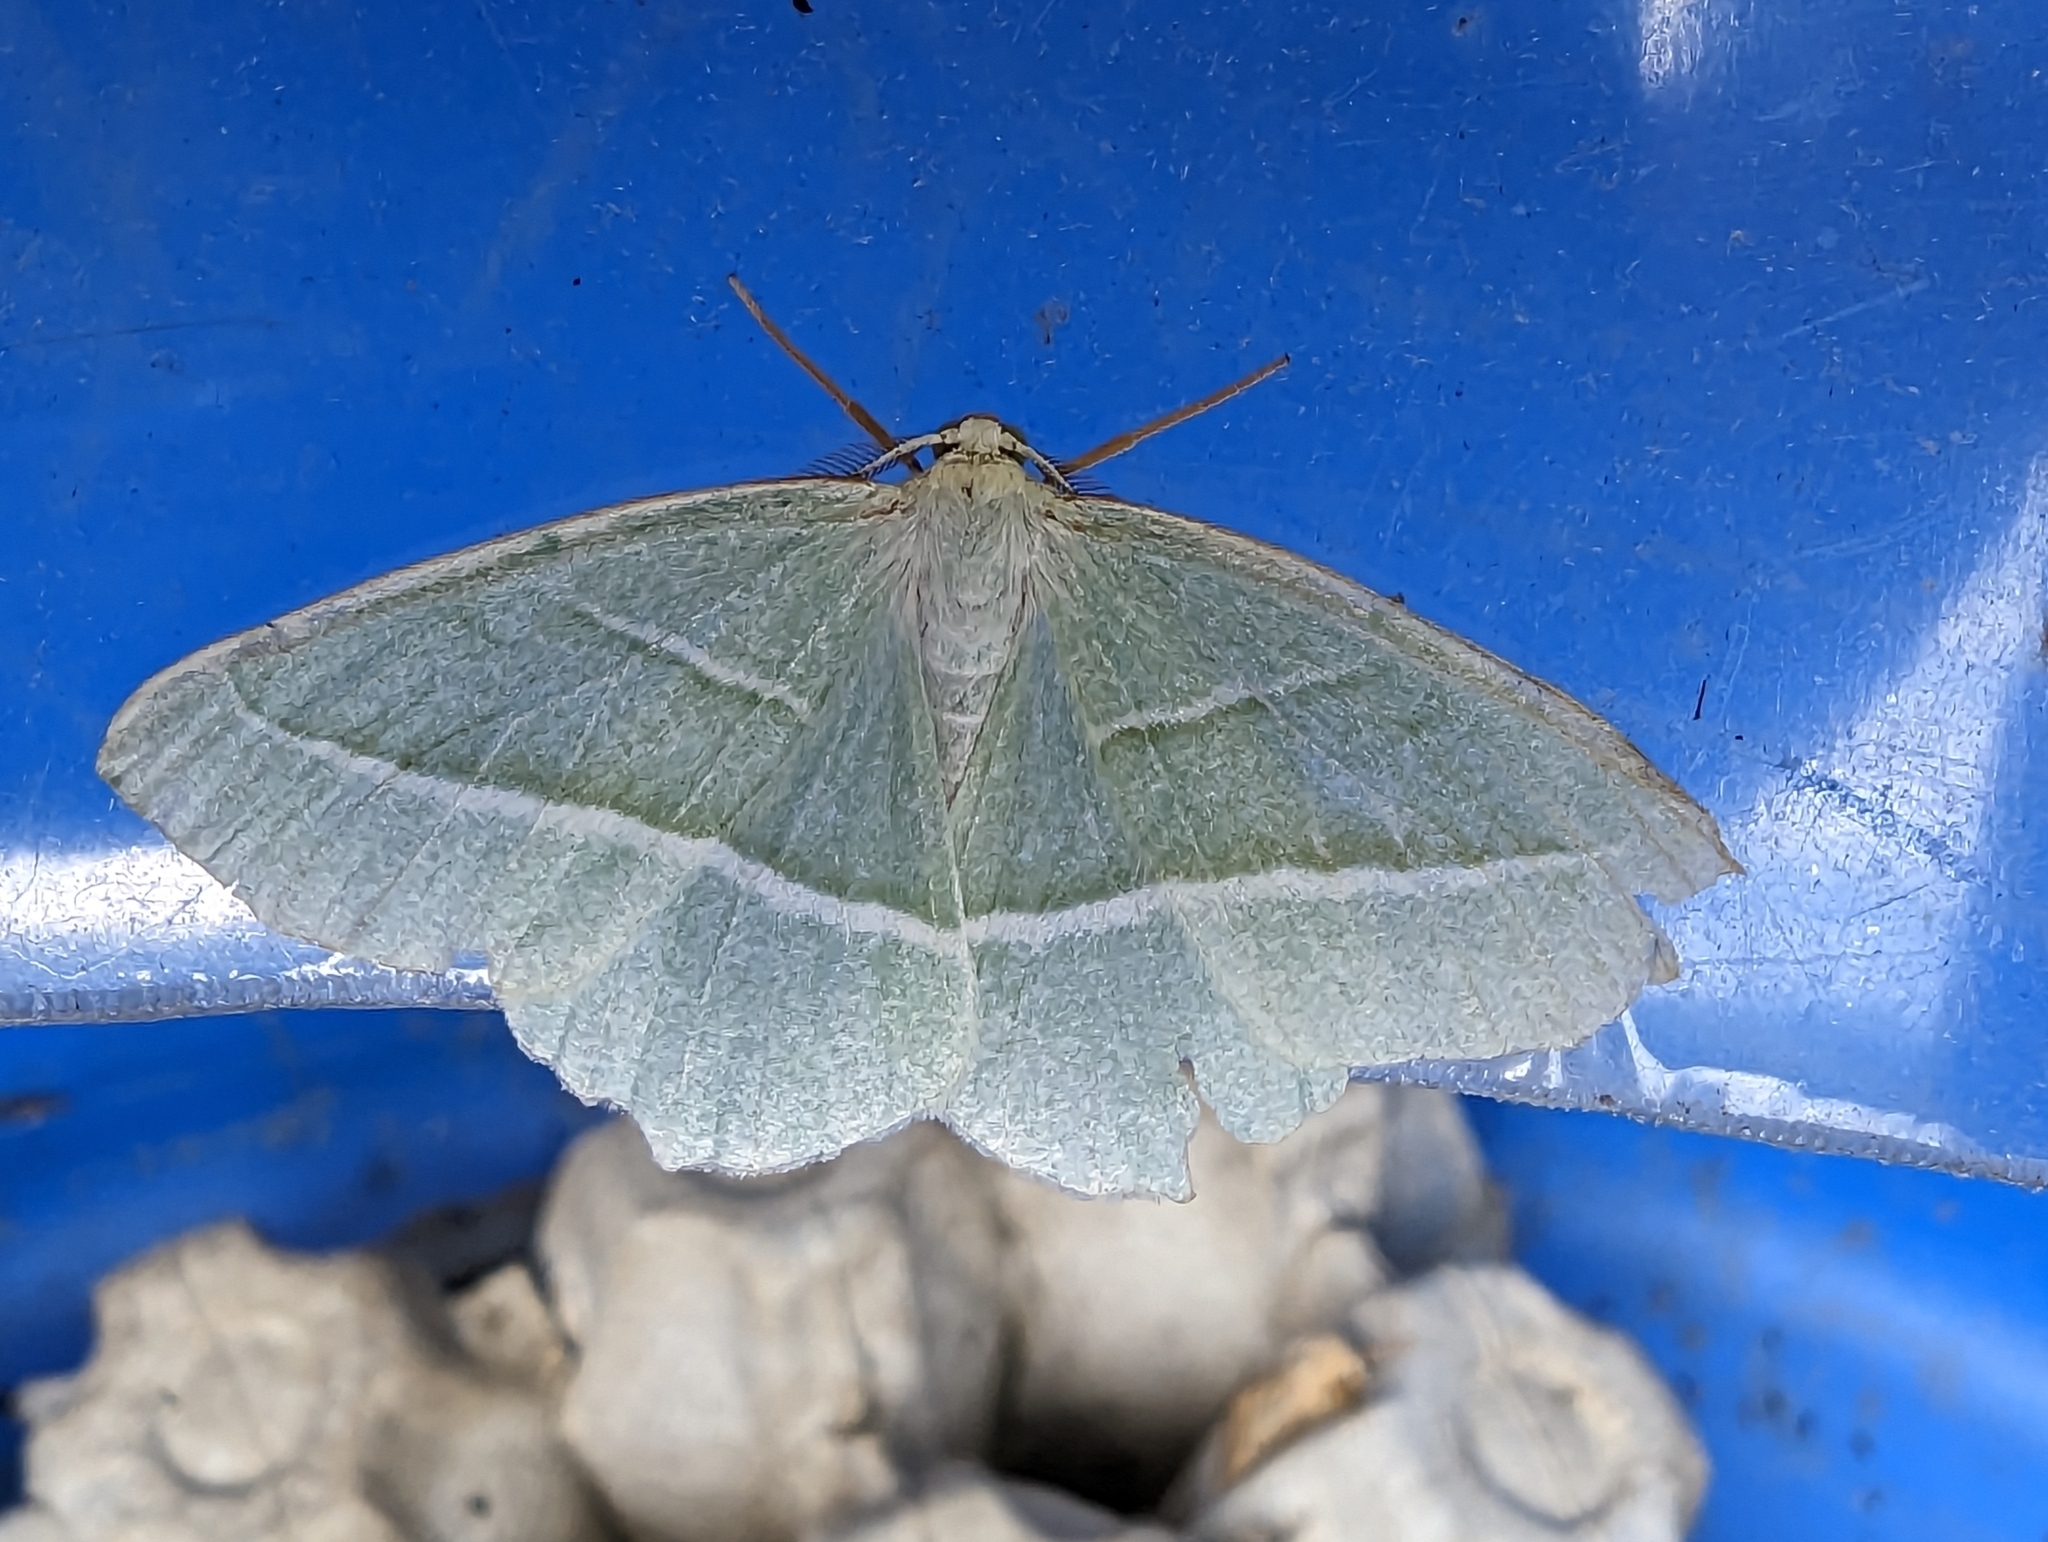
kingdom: Animalia
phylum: Arthropoda
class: Insecta
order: Lepidoptera
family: Geometridae
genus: Campaea
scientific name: Campaea margaritaria
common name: Light emerald
